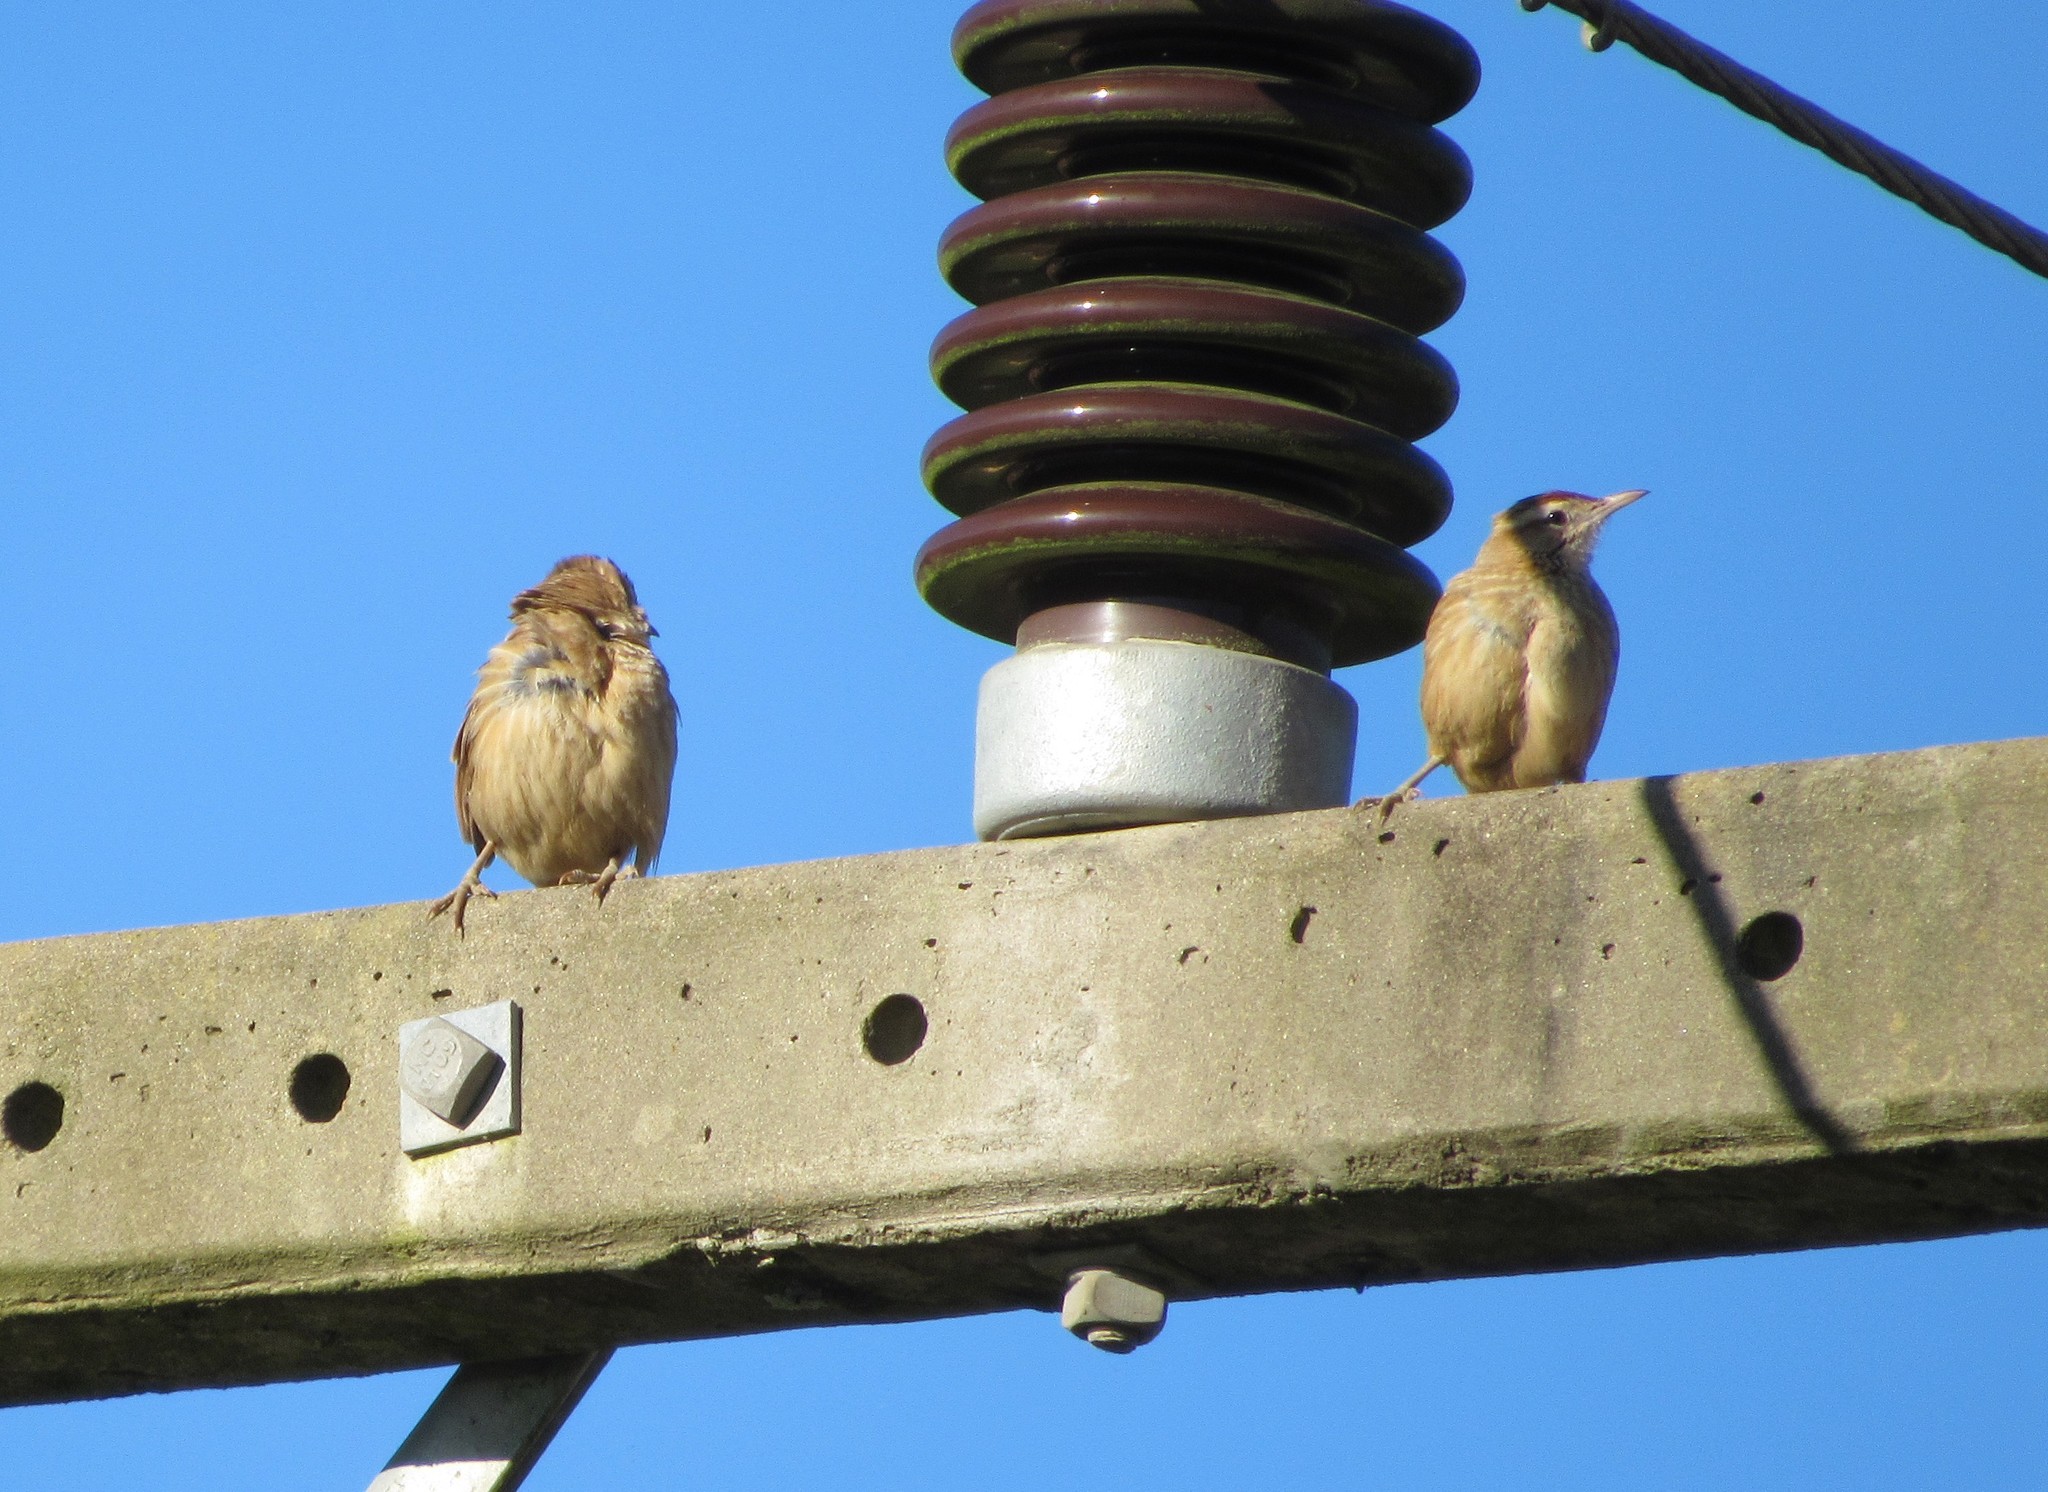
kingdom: Animalia
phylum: Chordata
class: Aves
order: Passeriformes
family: Furnariidae
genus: Anumbius
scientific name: Anumbius annumbi
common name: Firewood-gatherer
